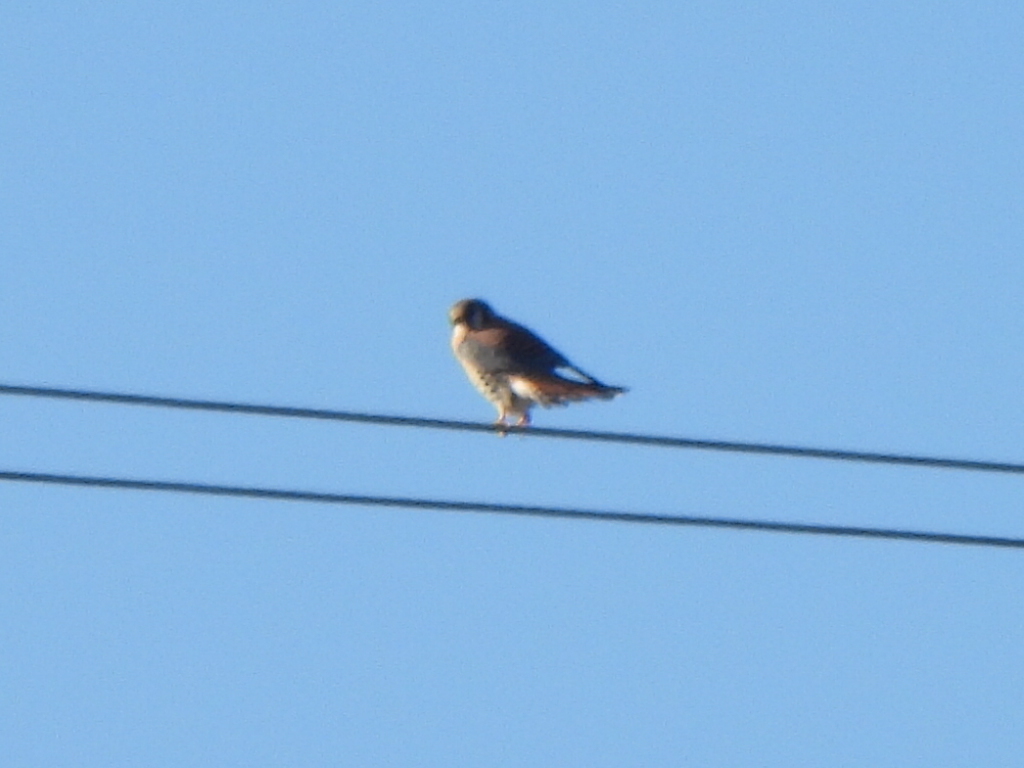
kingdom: Animalia
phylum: Chordata
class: Aves
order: Falconiformes
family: Falconidae
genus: Falco
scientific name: Falco sparverius
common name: American kestrel
